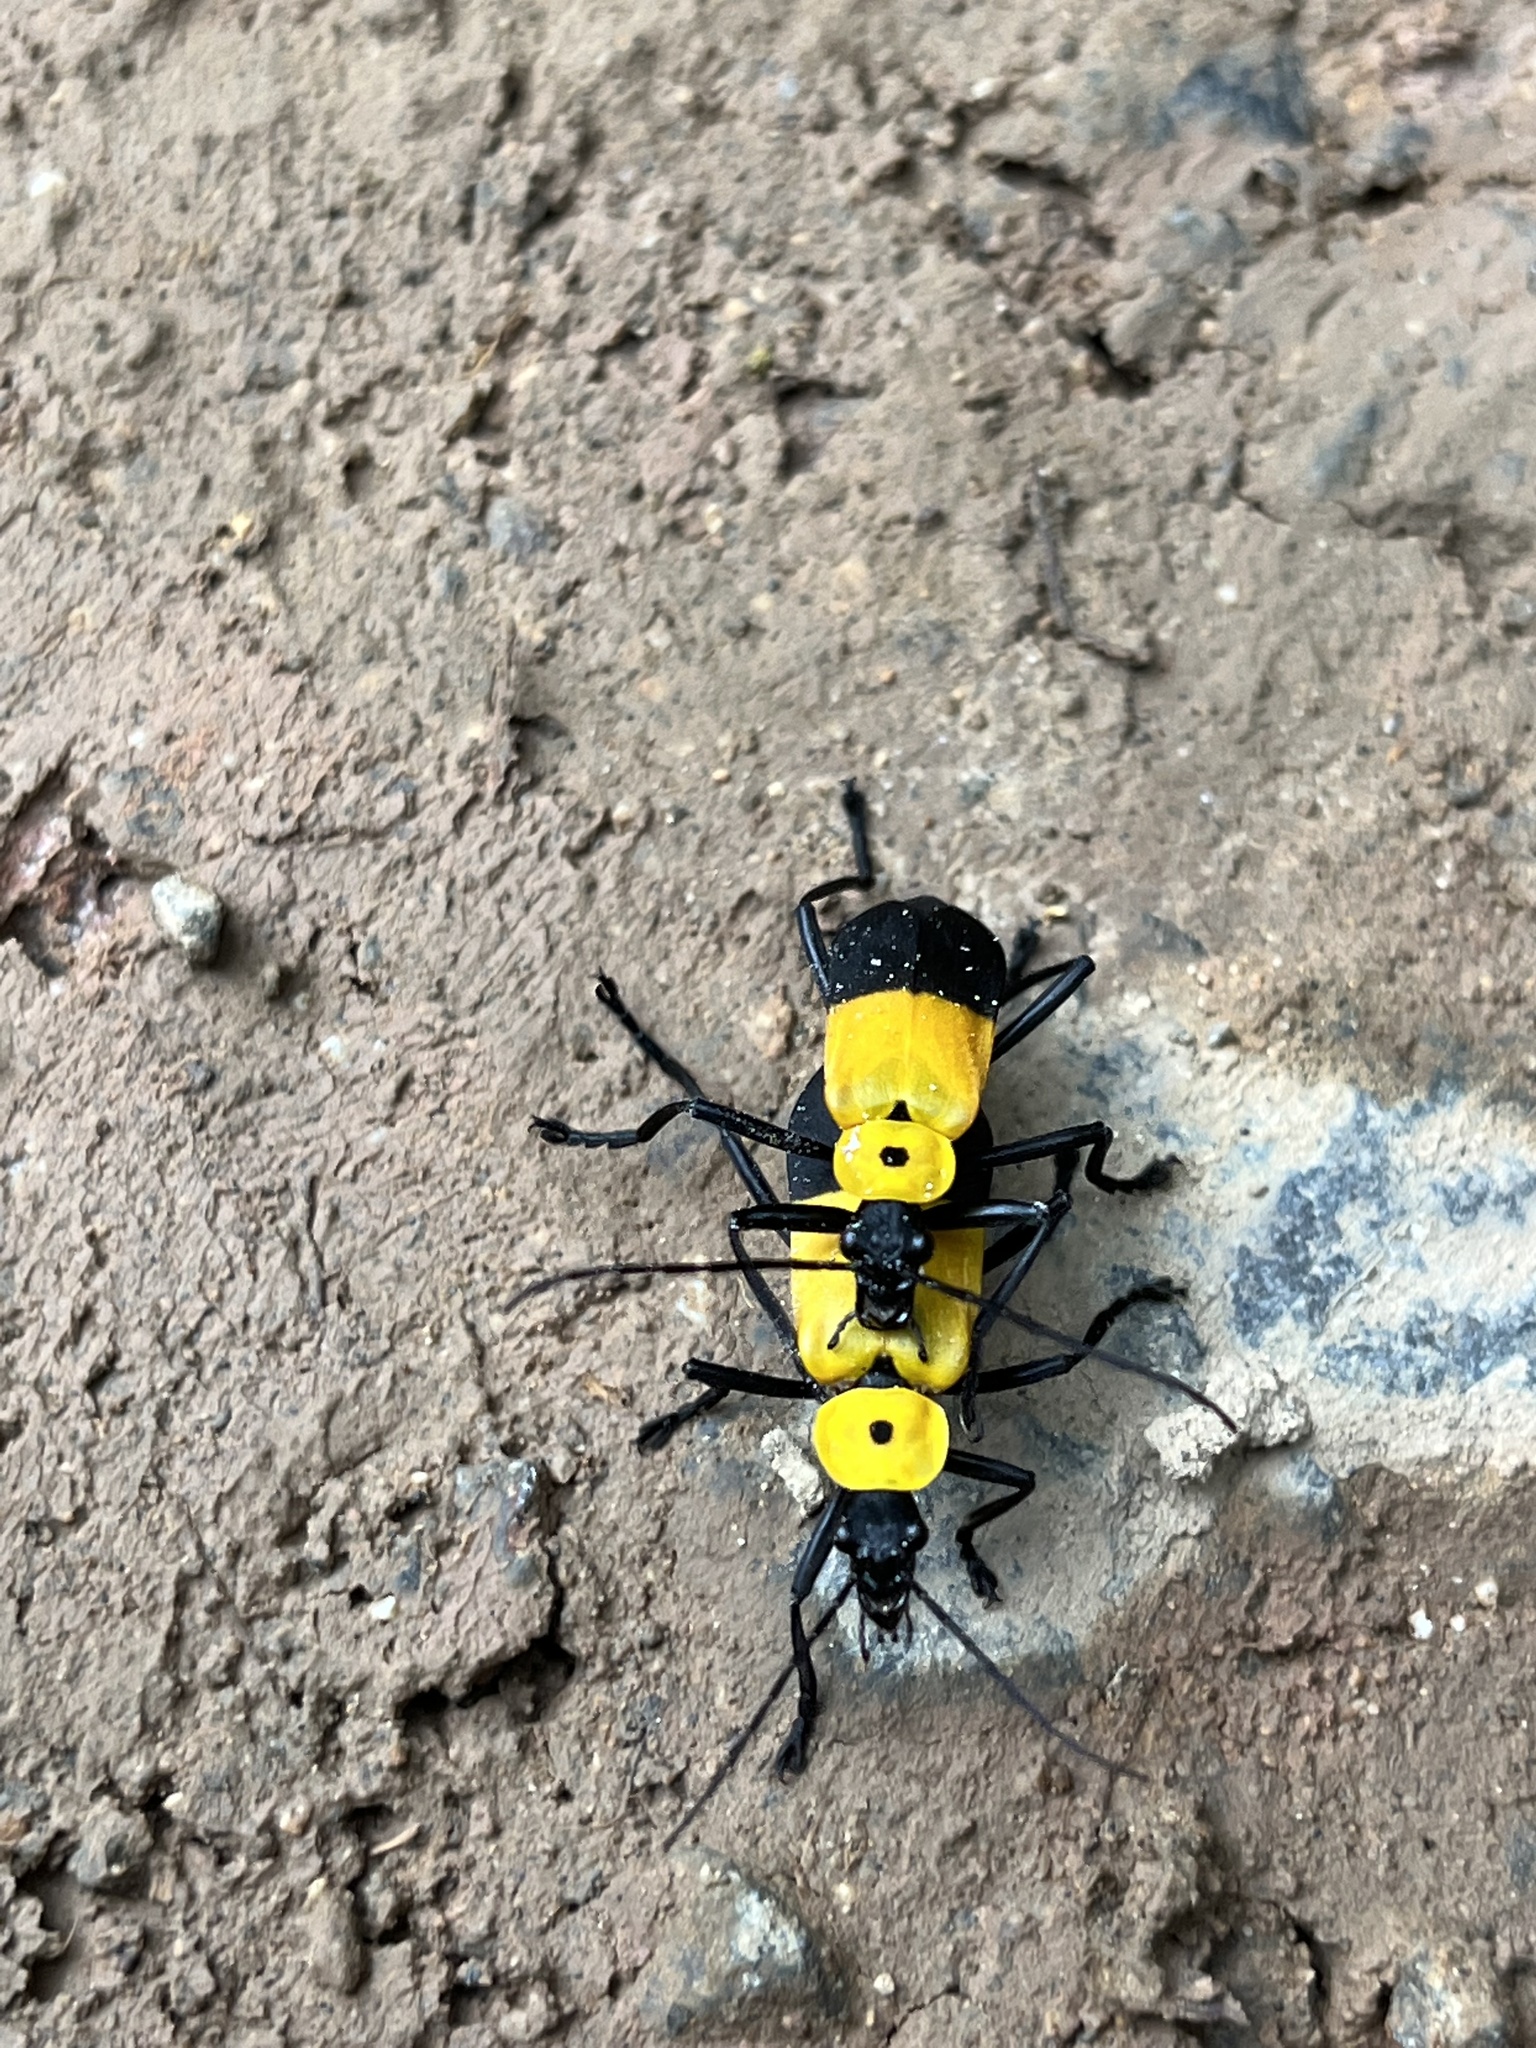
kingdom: Animalia
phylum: Arthropoda
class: Insecta
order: Coleoptera
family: Cantharidae
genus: Chauliognathus
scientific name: Chauliognathus
